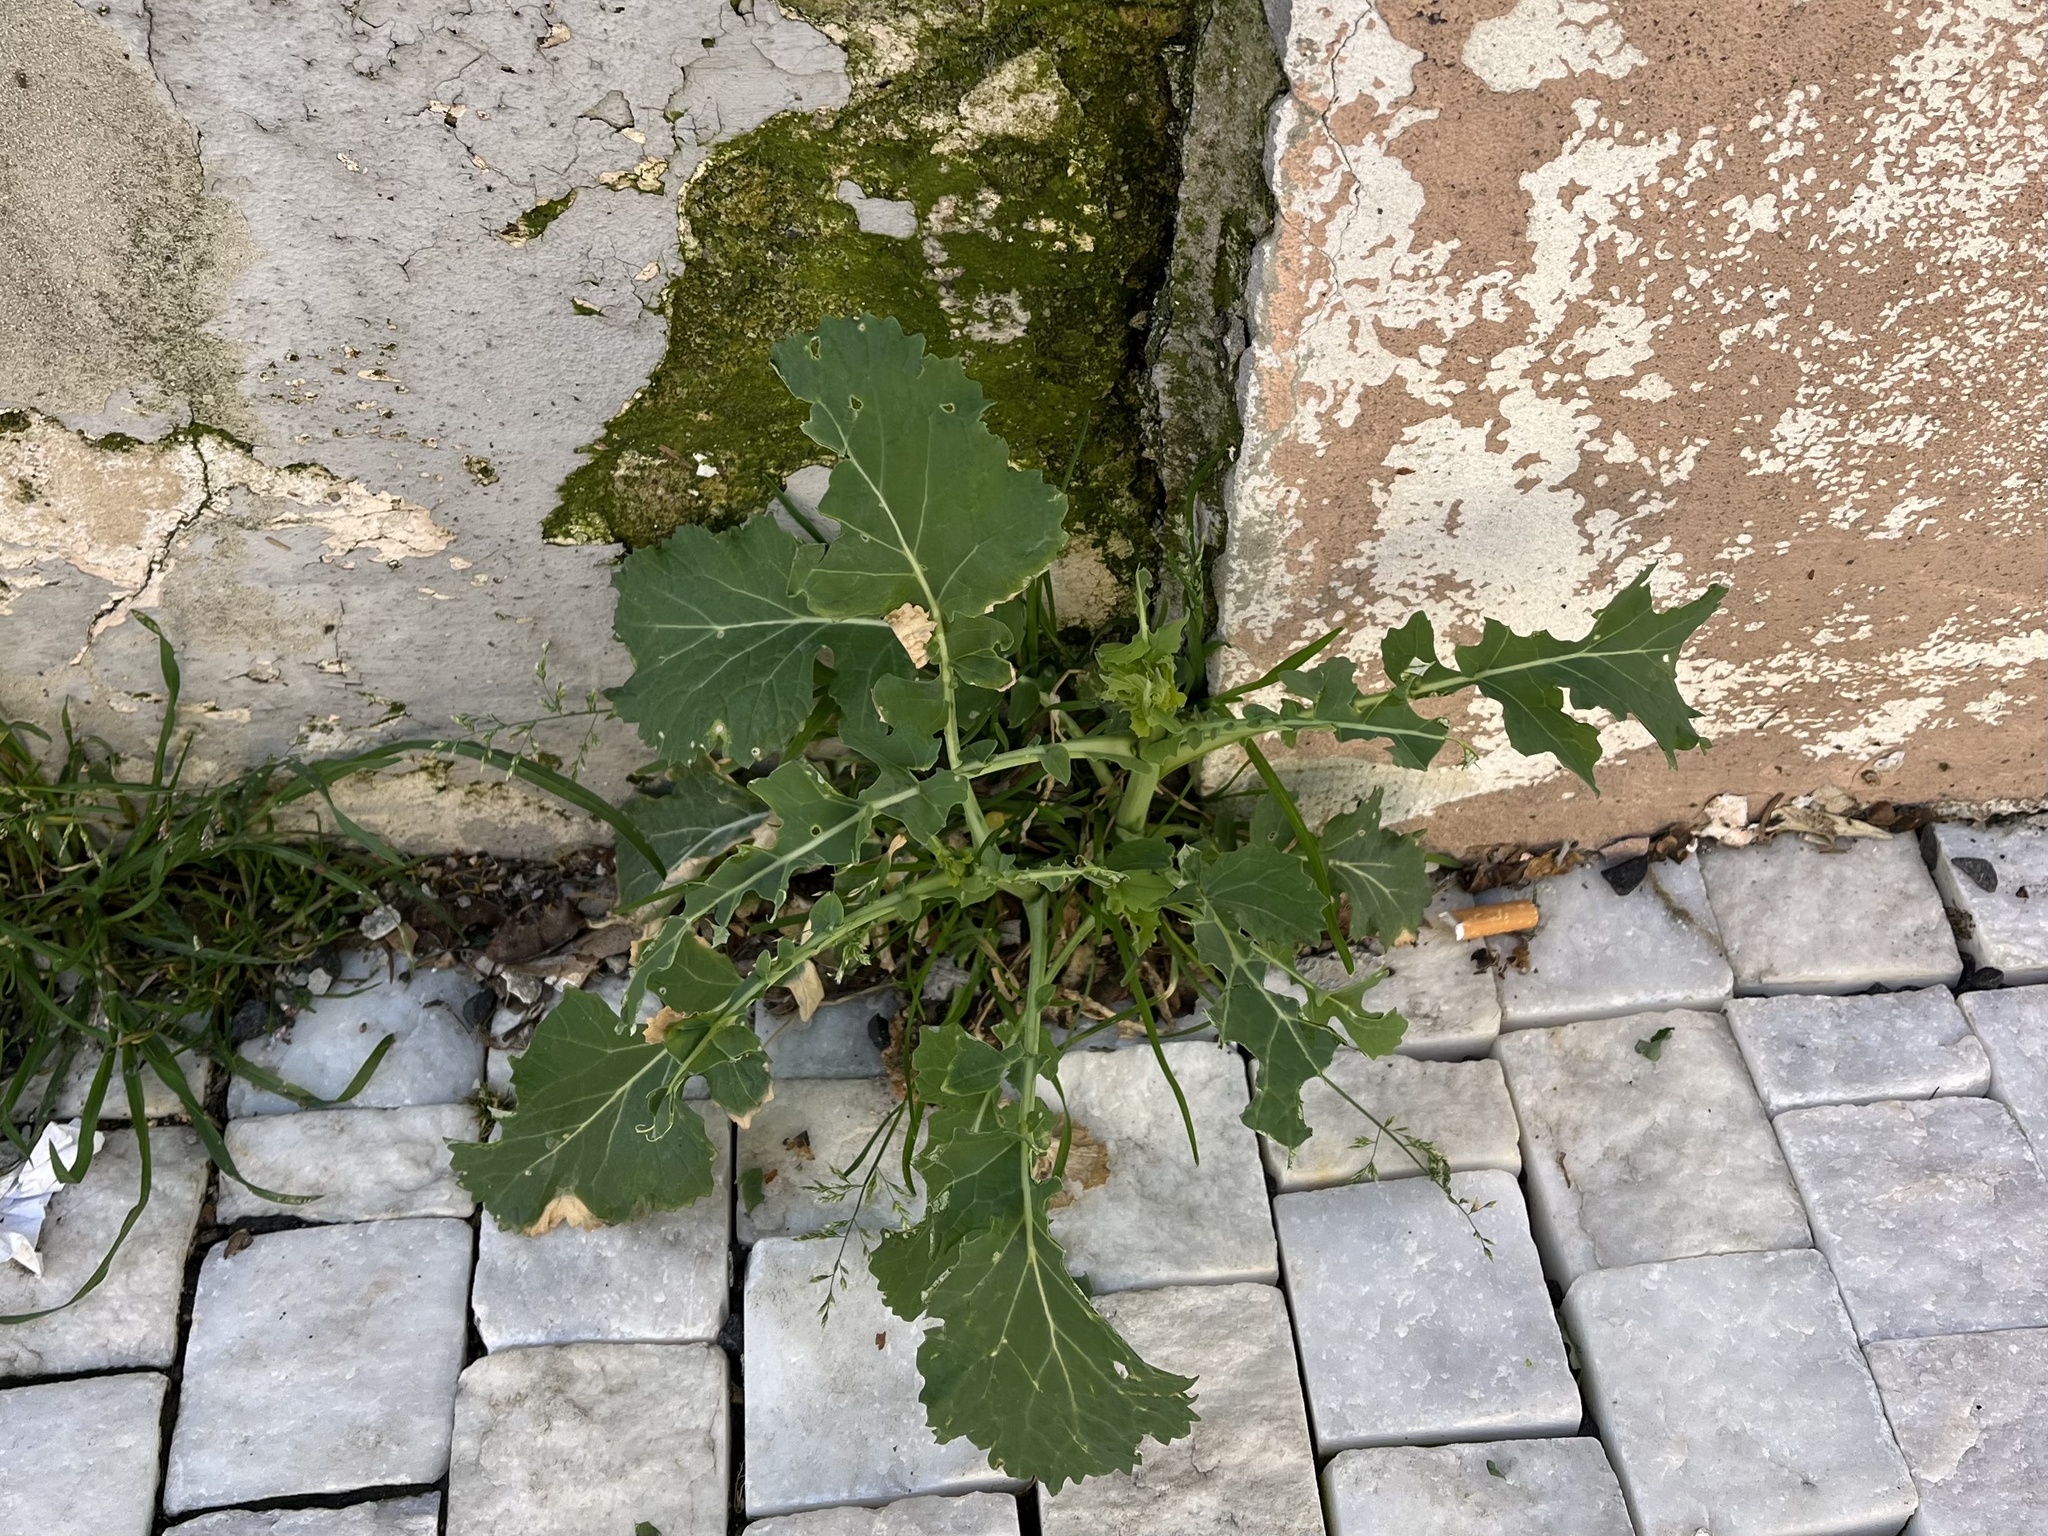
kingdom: Plantae
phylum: Tracheophyta
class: Magnoliopsida
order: Brassicales
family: Brassicaceae
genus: Brassica
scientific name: Brassica napus
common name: Rape
